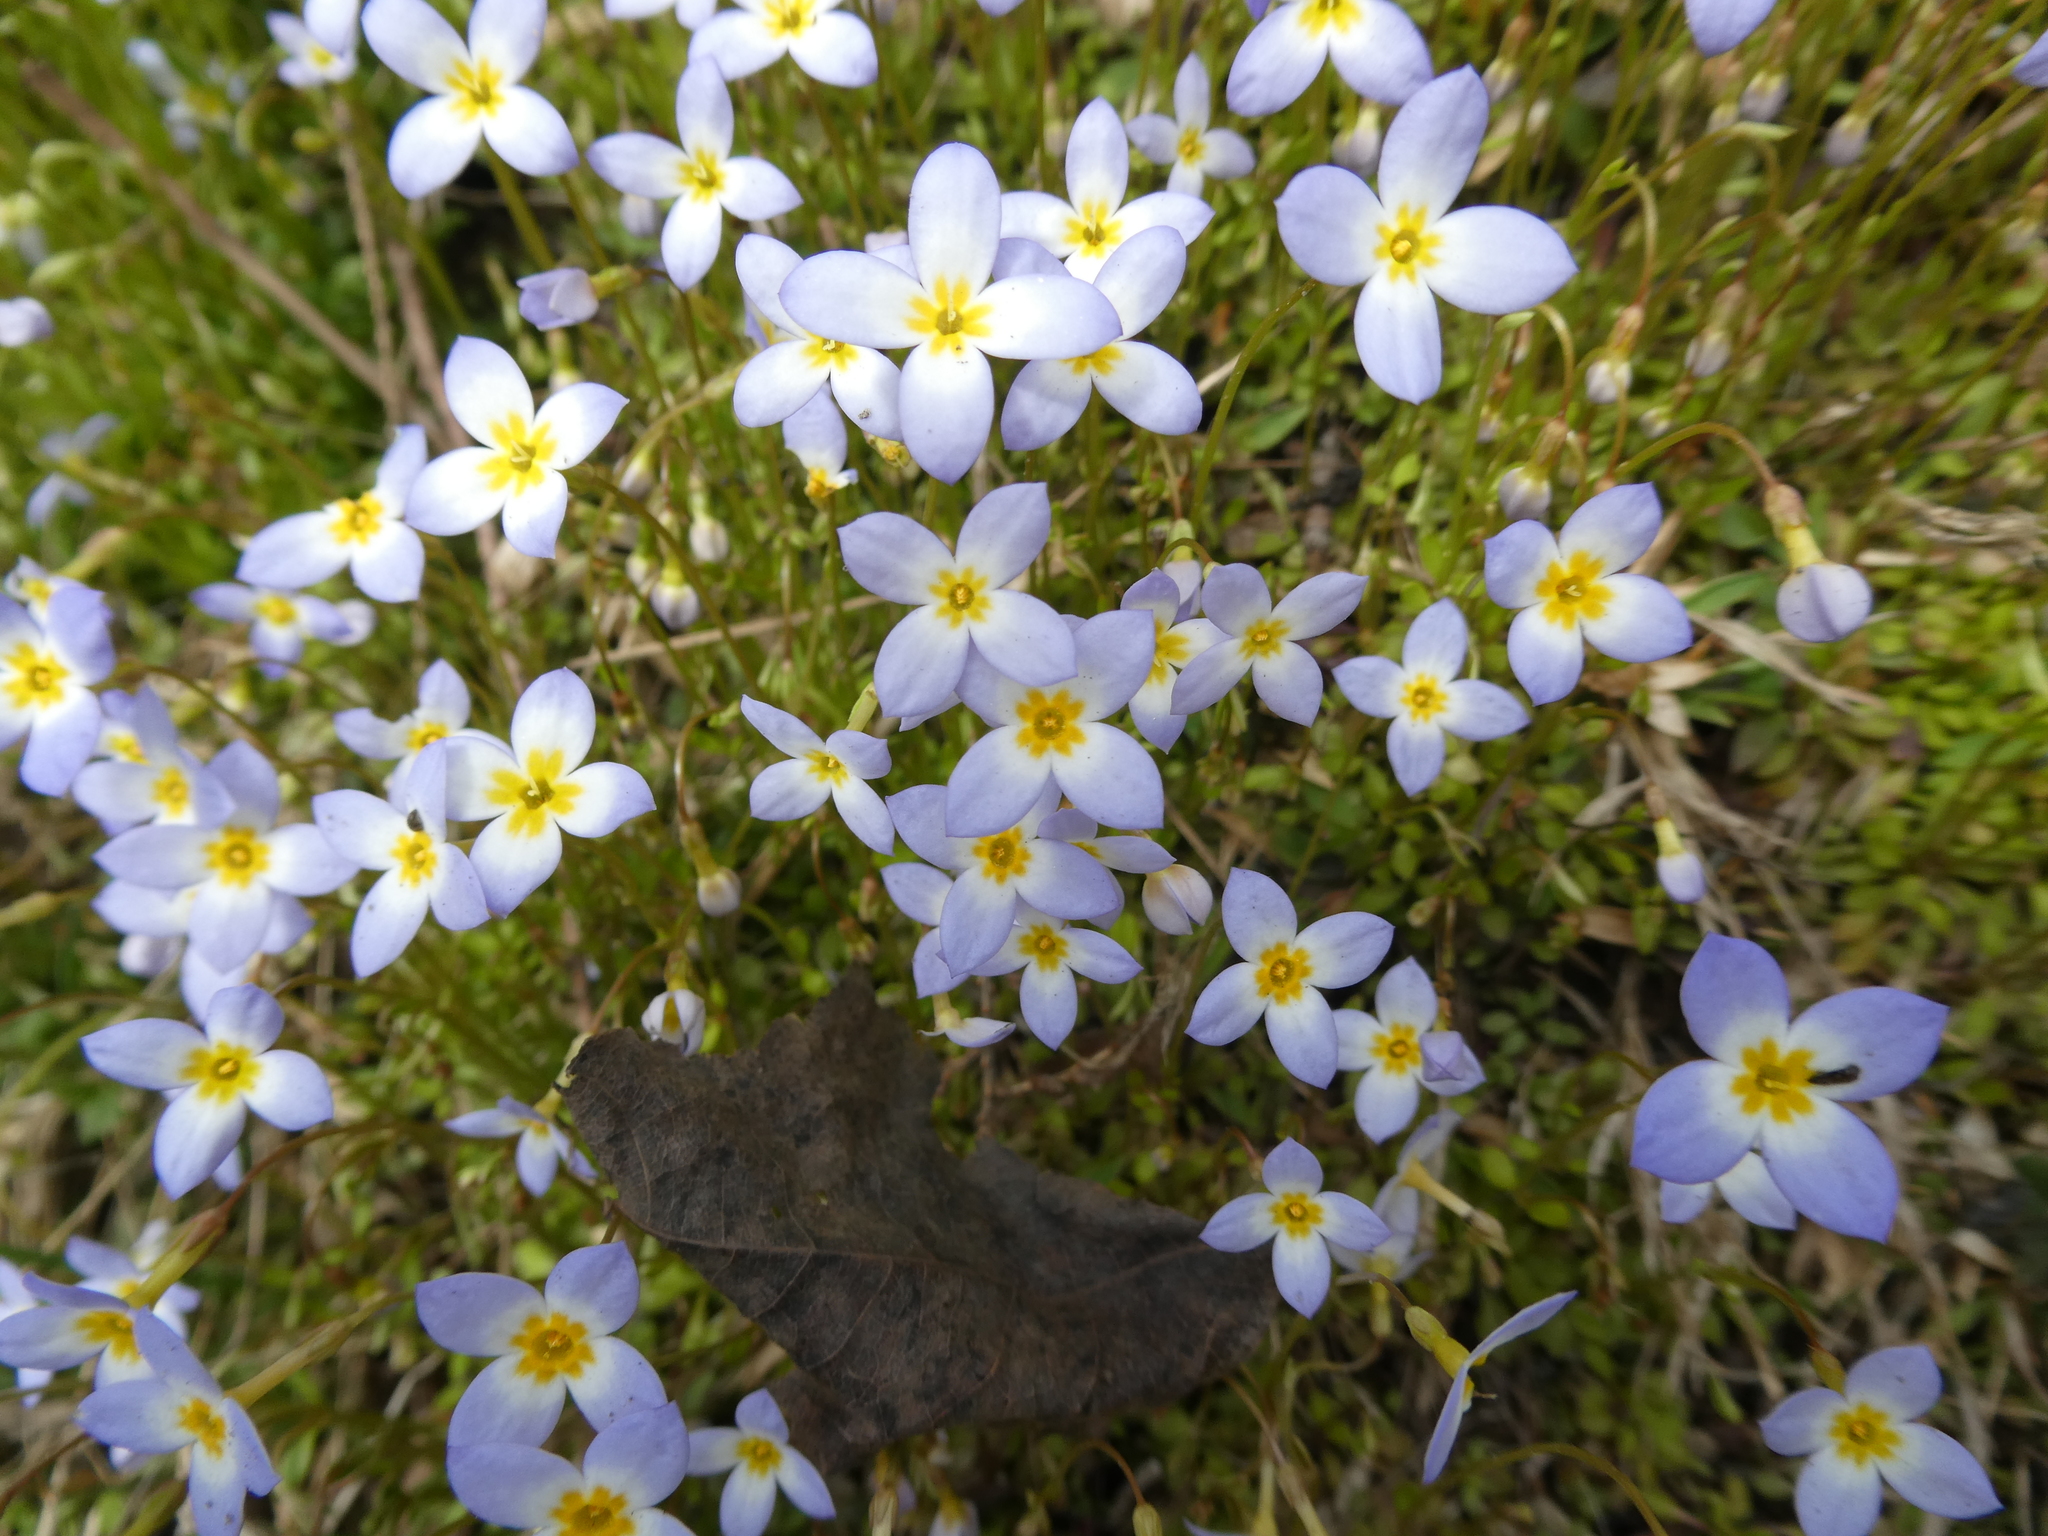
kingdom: Plantae
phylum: Tracheophyta
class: Magnoliopsida
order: Gentianales
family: Rubiaceae
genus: Houstonia
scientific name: Houstonia caerulea
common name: Bluets
